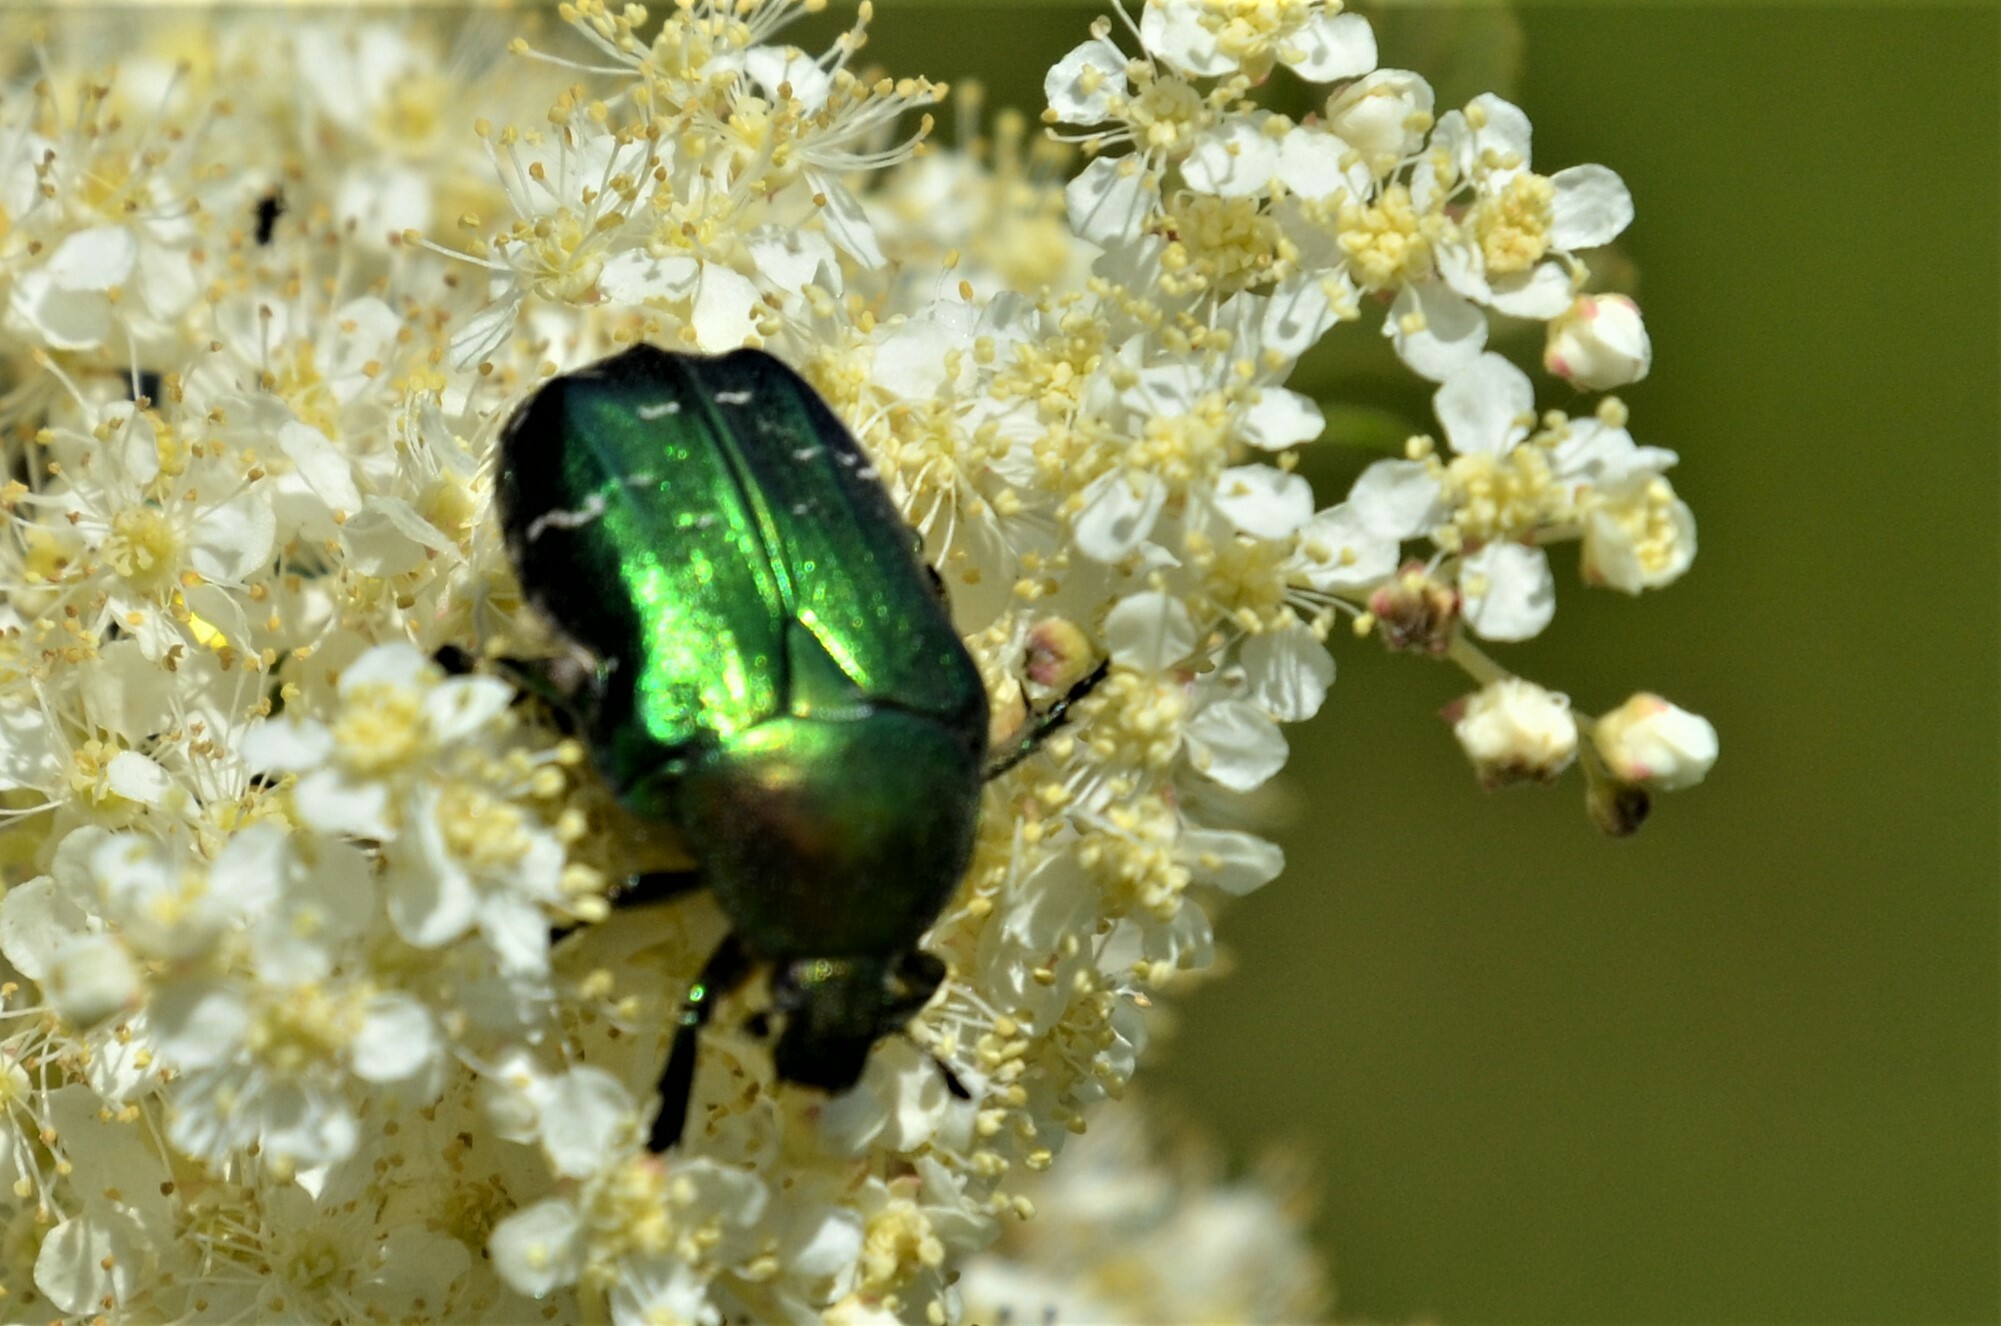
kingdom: Animalia
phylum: Arthropoda
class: Insecta
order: Coleoptera
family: Scarabaeidae
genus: Cetonia
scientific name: Cetonia aurata
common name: Rose chafer
